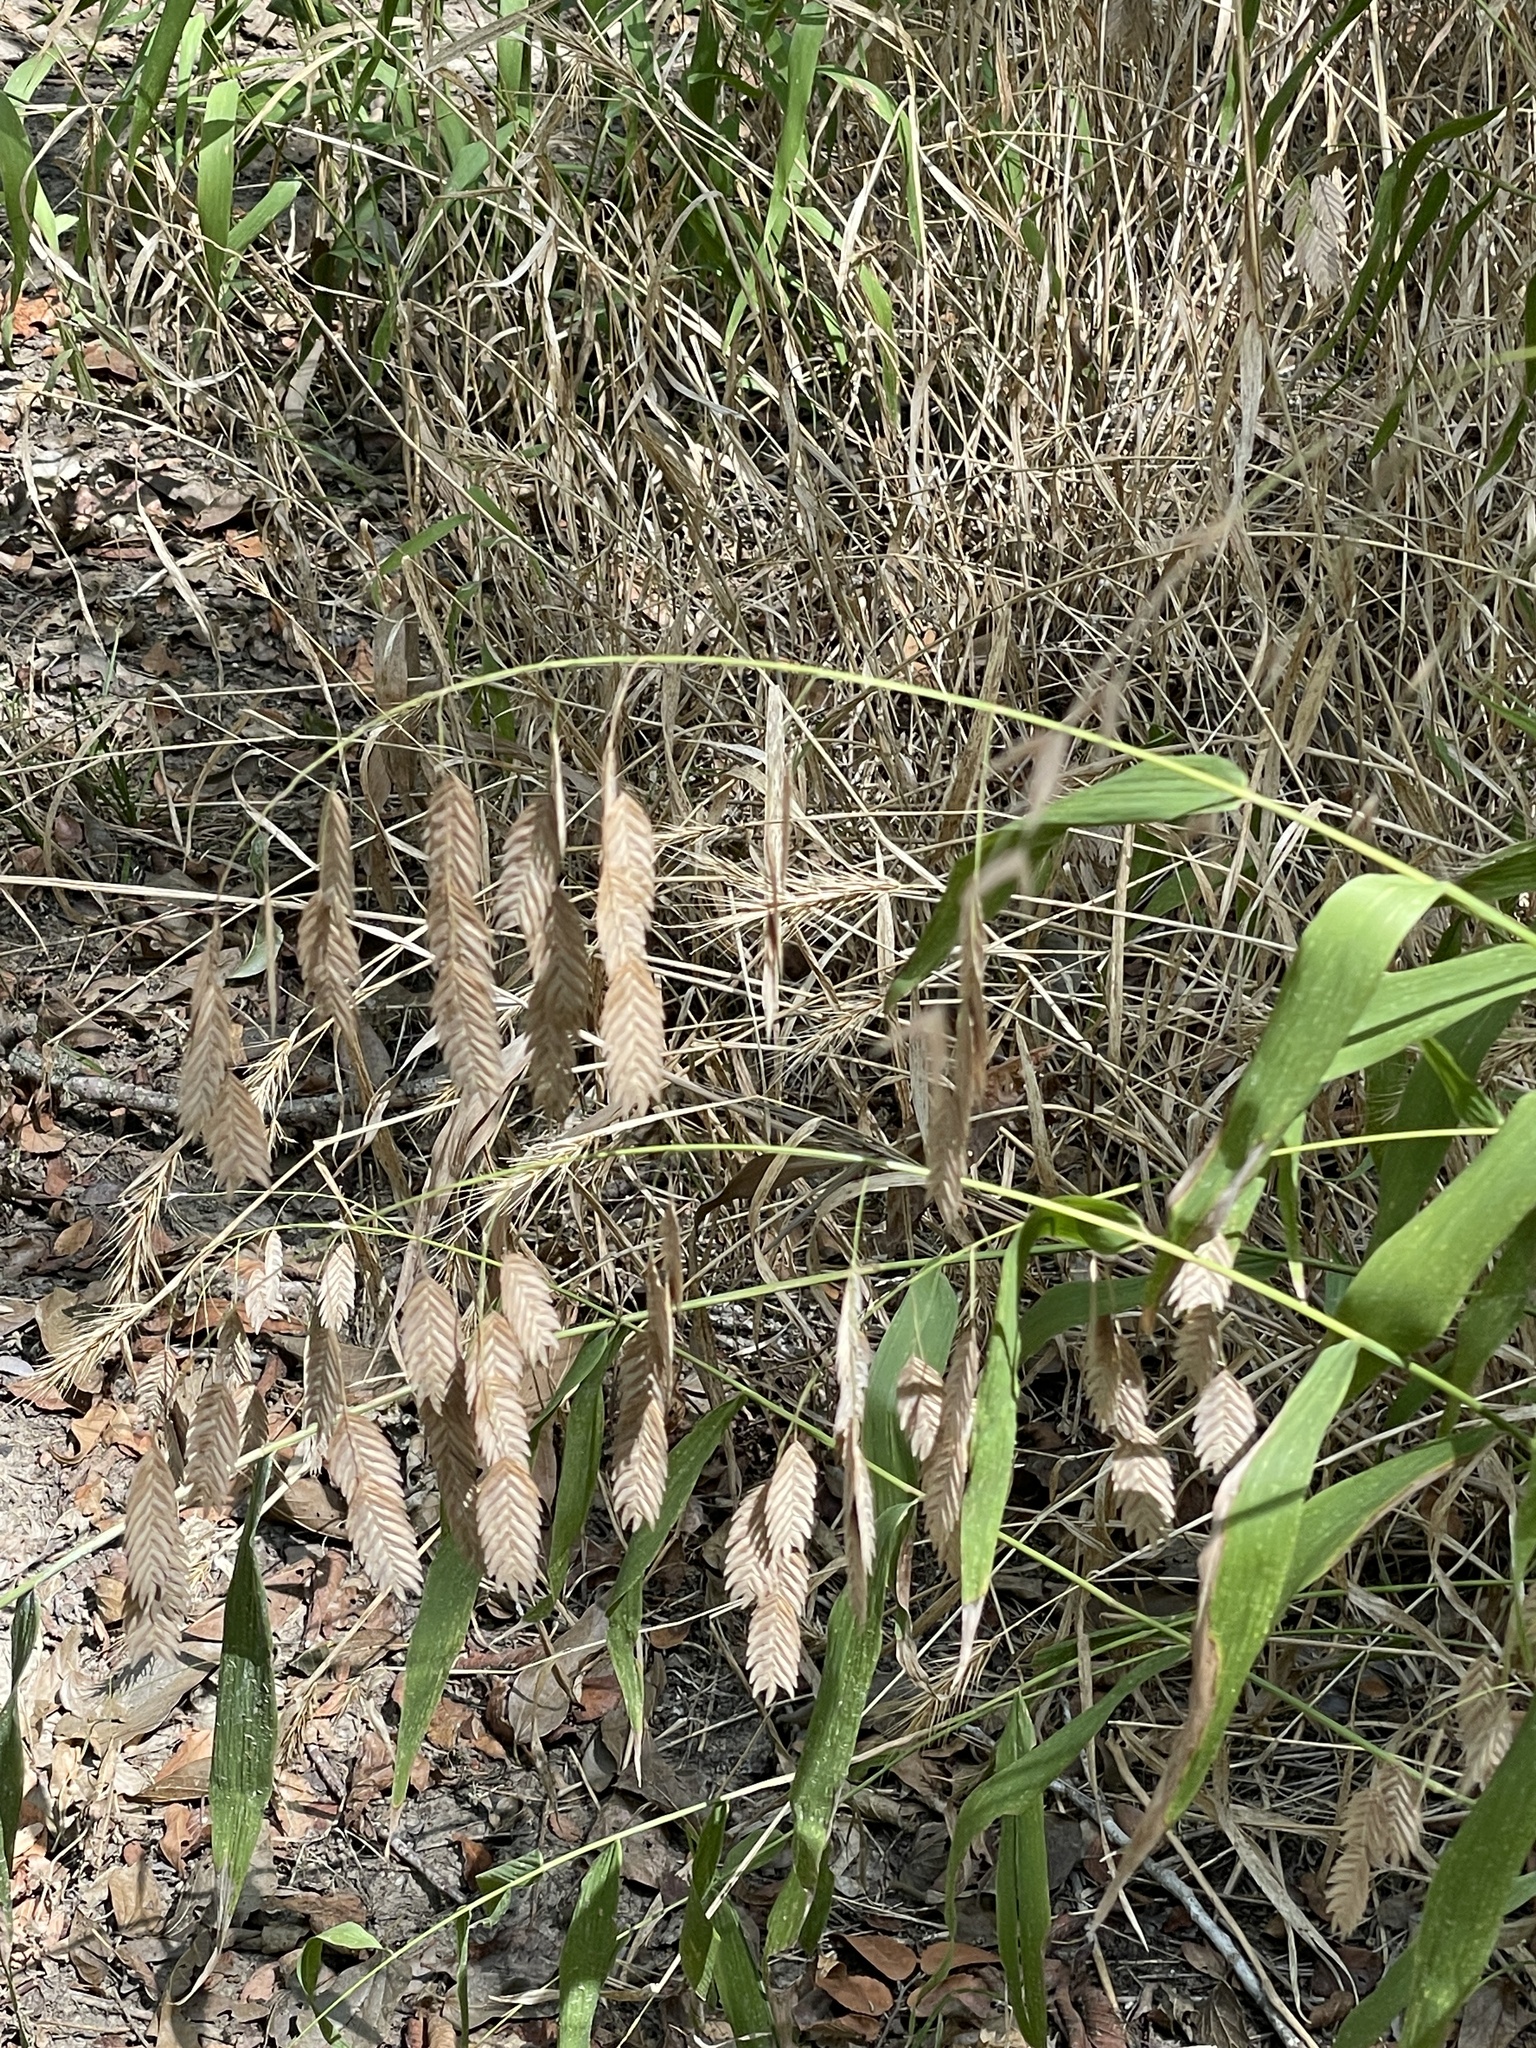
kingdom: Plantae
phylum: Tracheophyta
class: Liliopsida
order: Poales
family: Poaceae
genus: Chasmanthium
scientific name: Chasmanthium latifolium
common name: Broad-leaved chasmanthium
